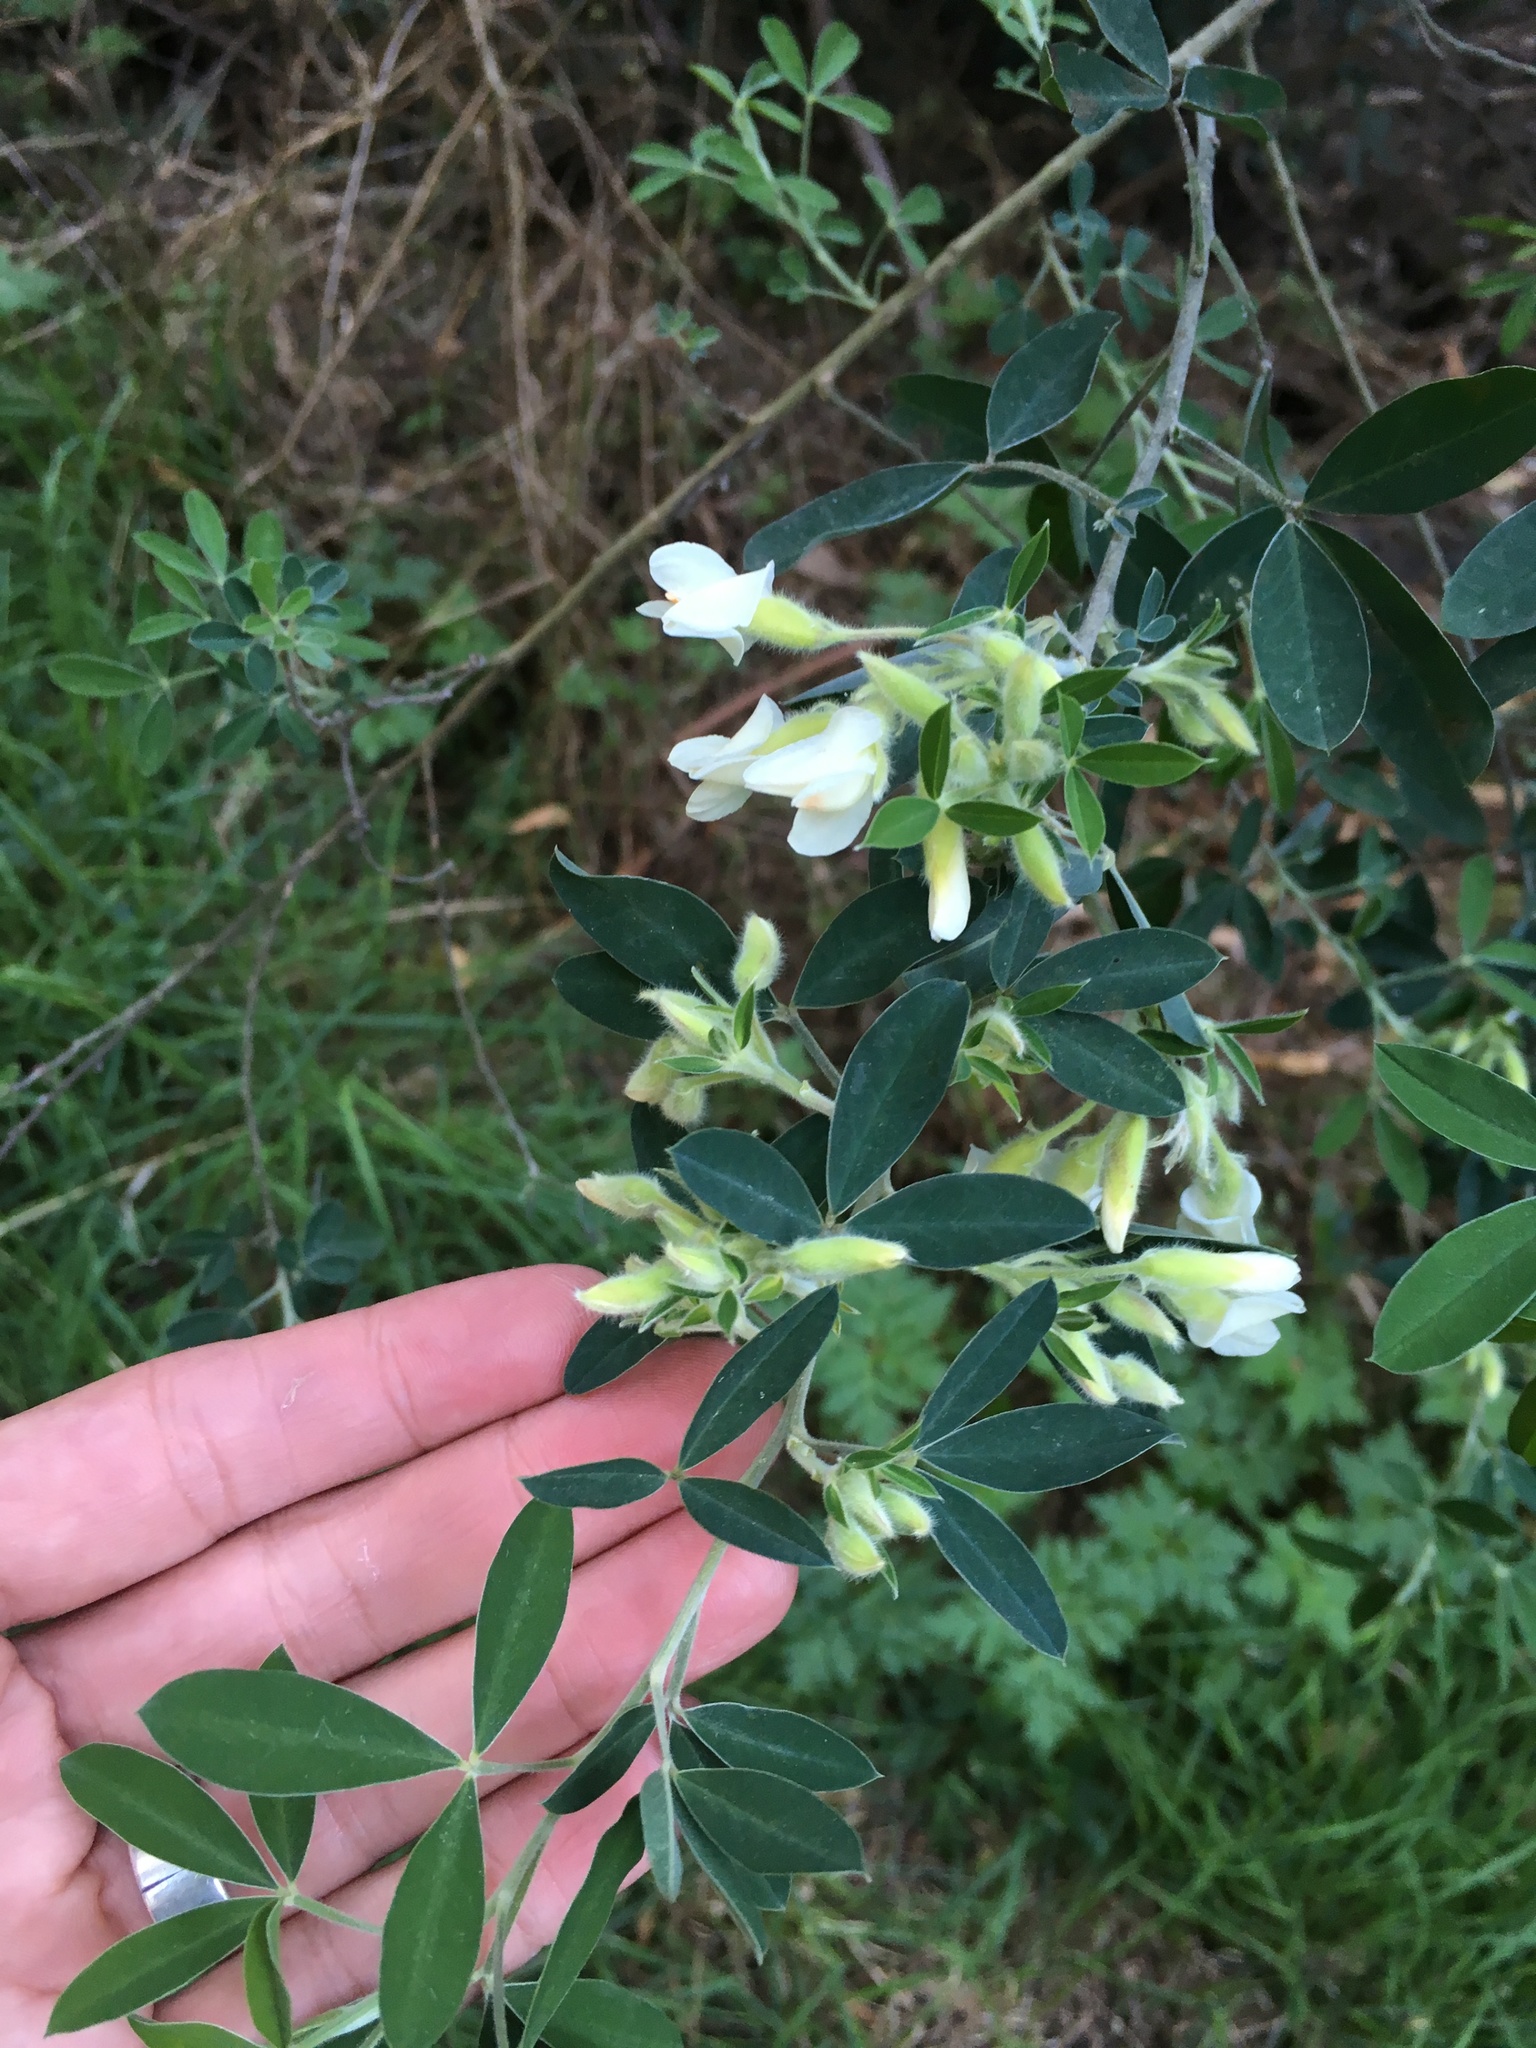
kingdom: Plantae
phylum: Tracheophyta
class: Magnoliopsida
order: Fabales
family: Fabaceae
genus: Chamaecytisus
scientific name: Chamaecytisus prolifer
